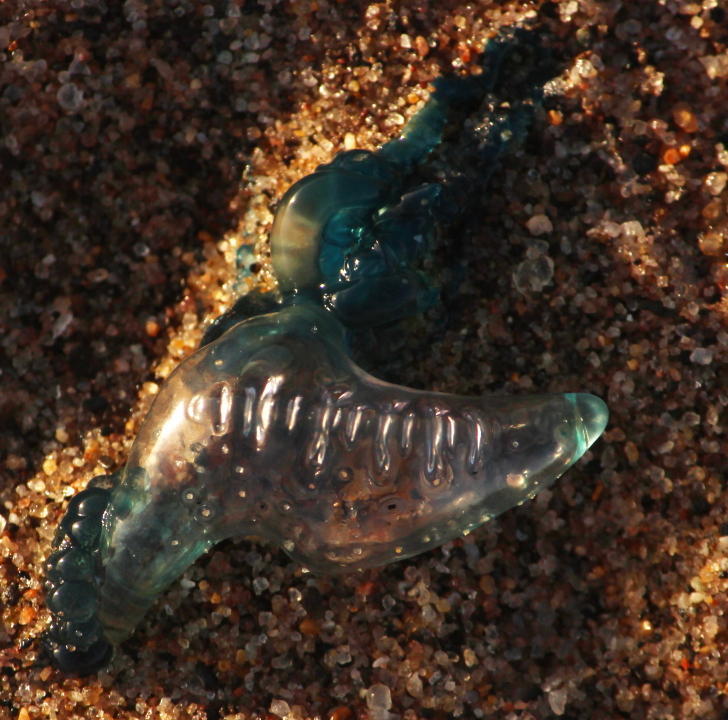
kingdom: Animalia
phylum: Cnidaria
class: Hydrozoa
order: Siphonophorae
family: Physaliidae
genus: Physalia
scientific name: Physalia physalis
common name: Portuguese man-of-war
